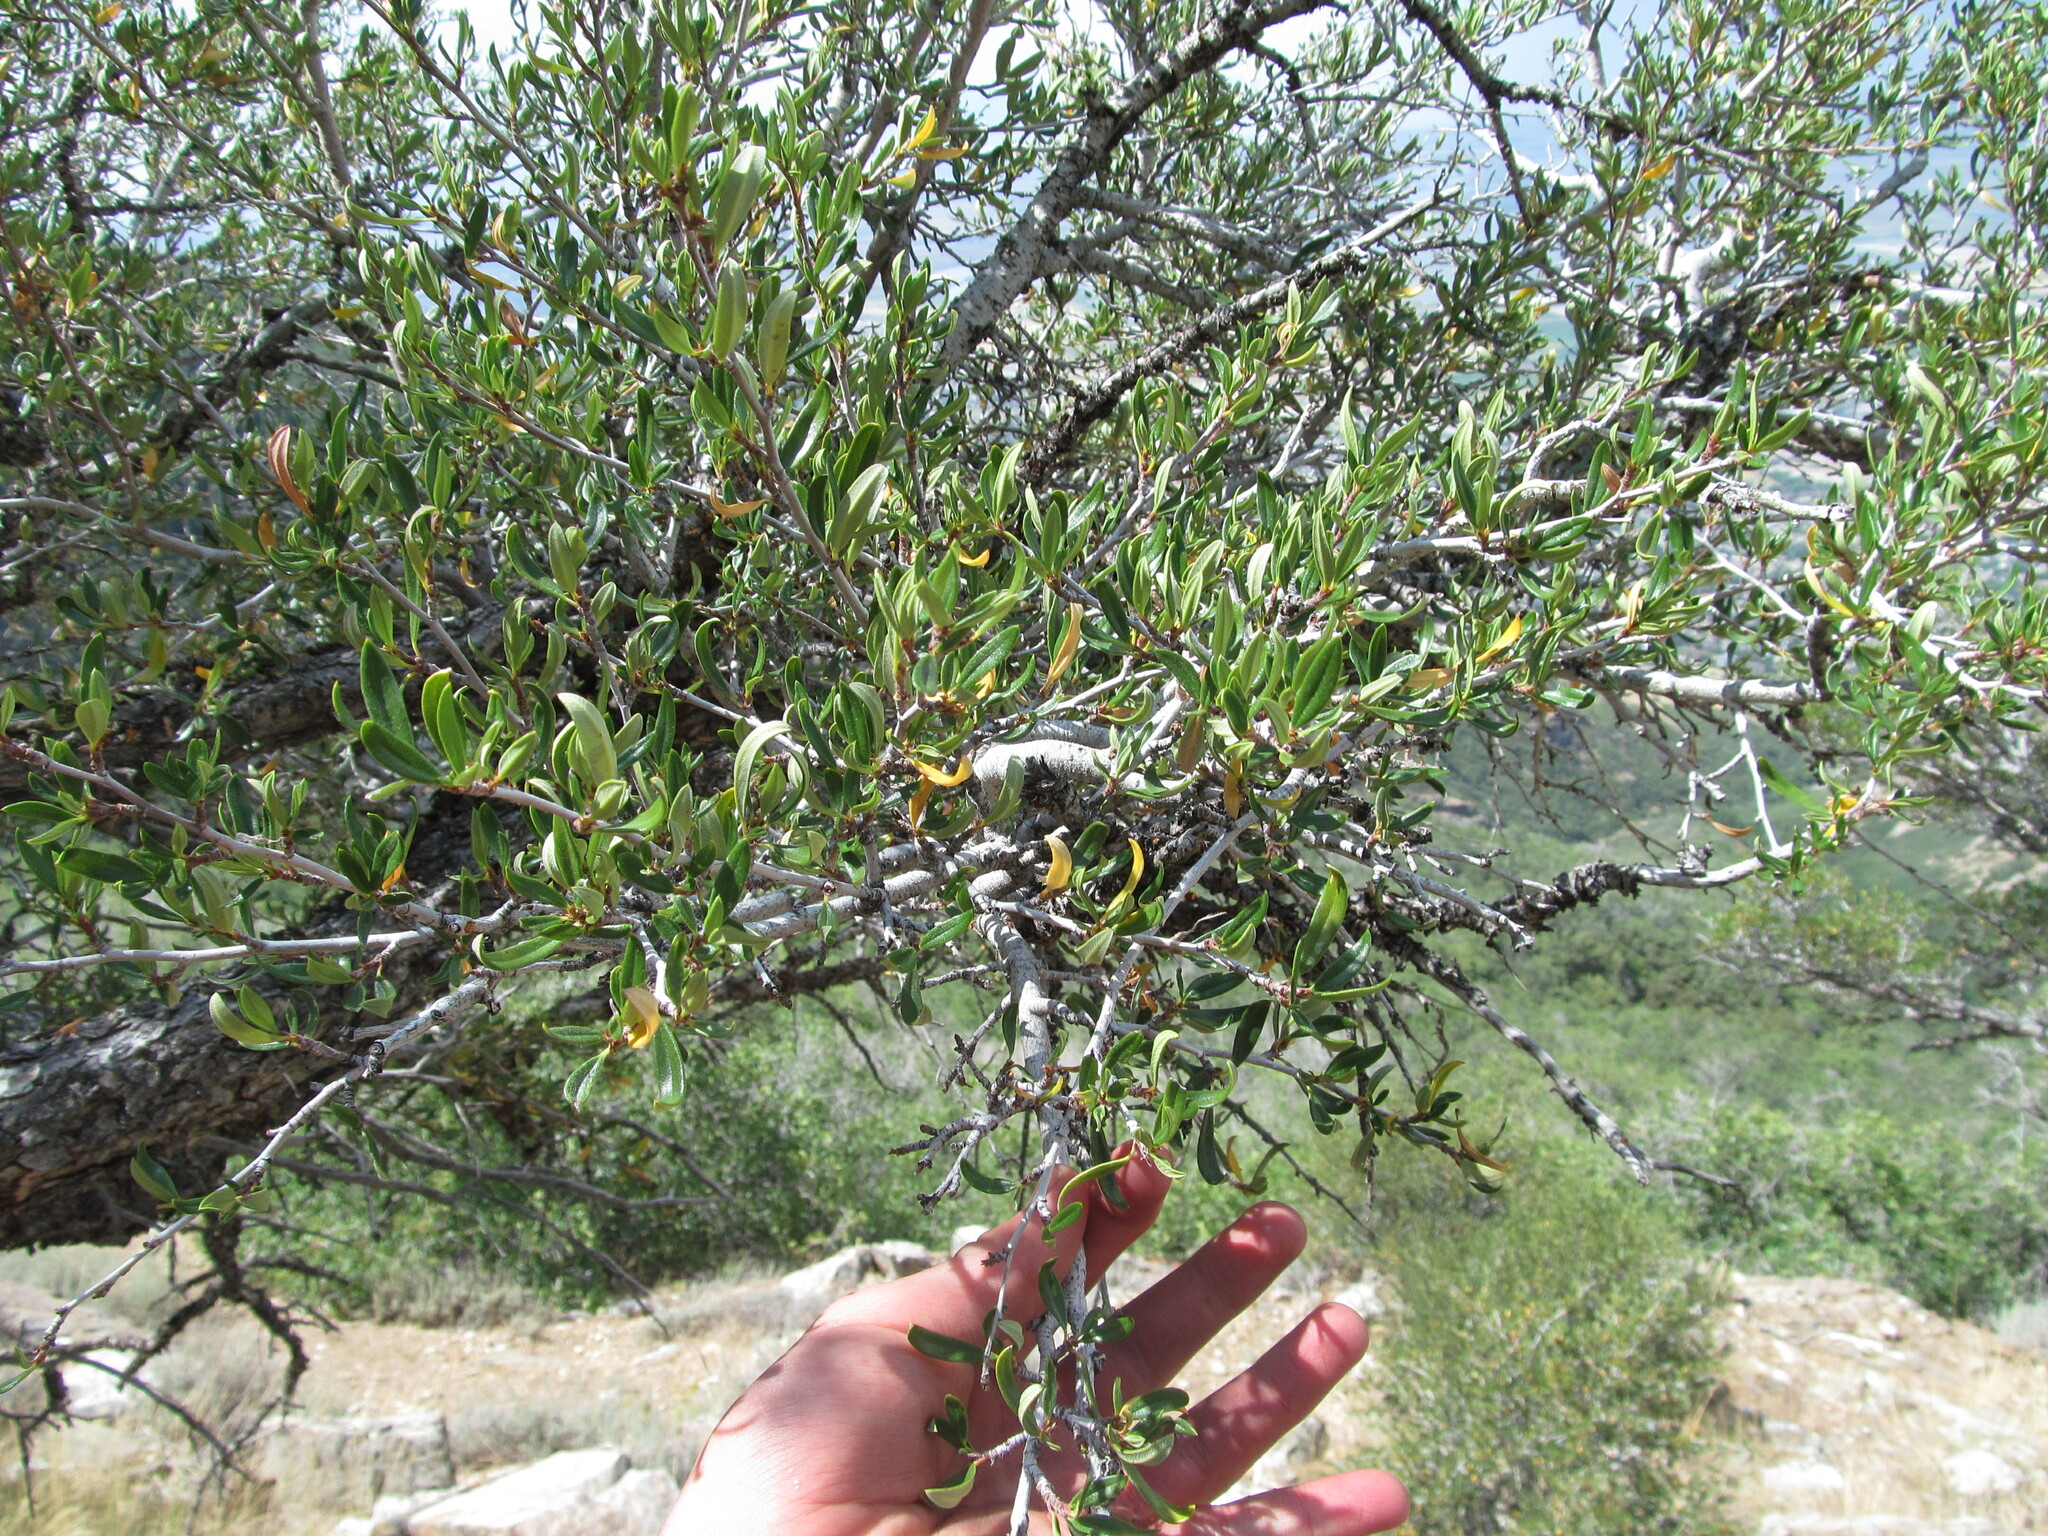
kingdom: Plantae
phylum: Tracheophyta
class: Magnoliopsida
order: Rosales
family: Rosaceae
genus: Cercocarpus
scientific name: Cercocarpus ledifolius
